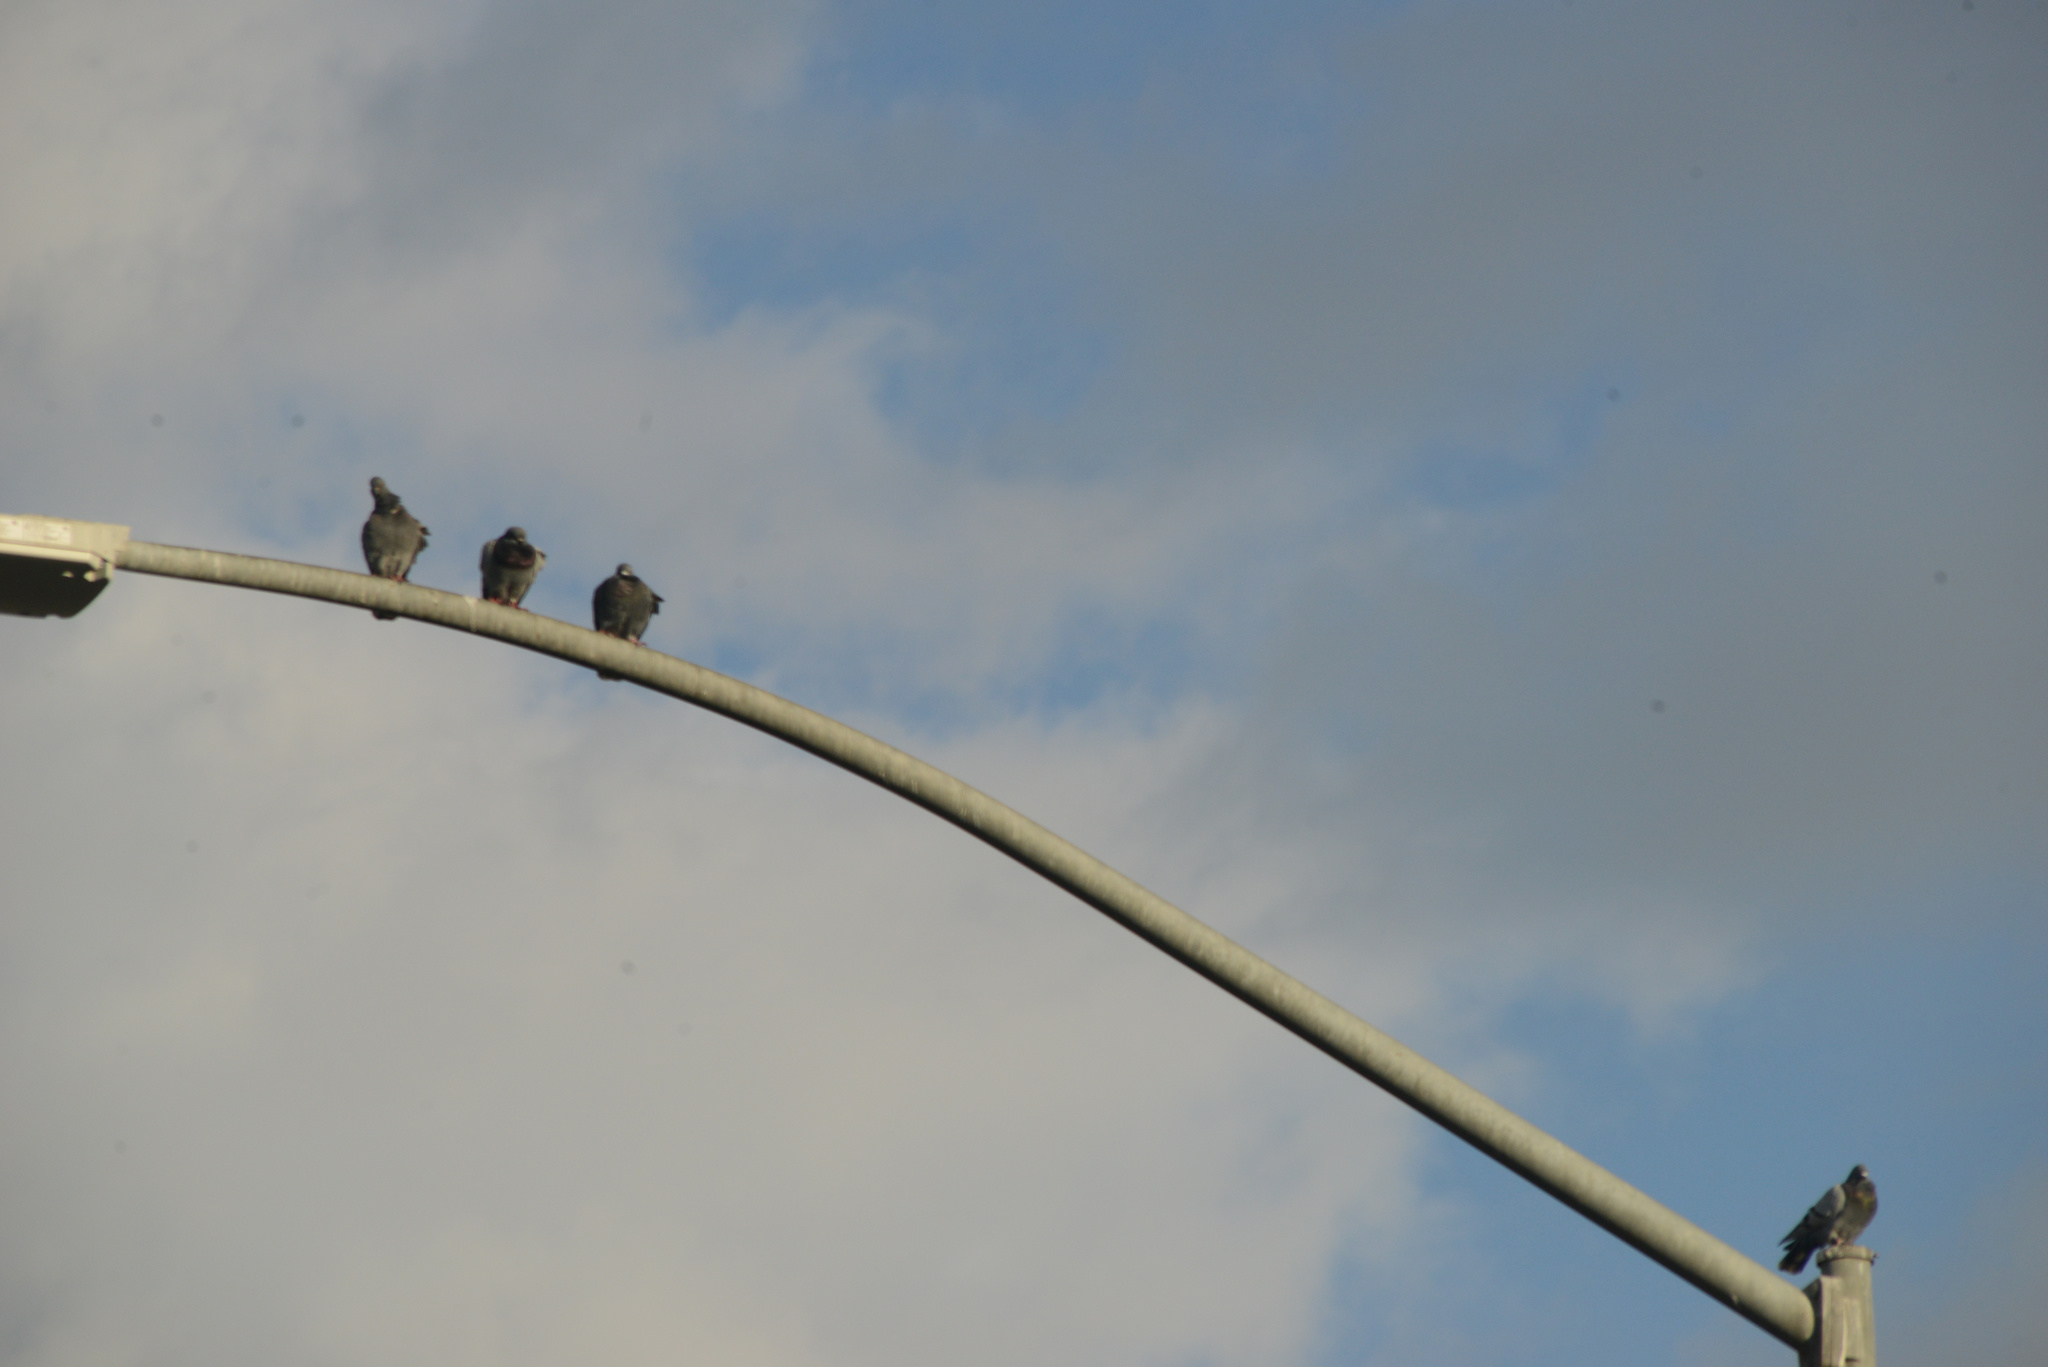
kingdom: Animalia
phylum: Chordata
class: Aves
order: Columbiformes
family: Columbidae
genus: Columba
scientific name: Columba livia
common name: Rock pigeon
